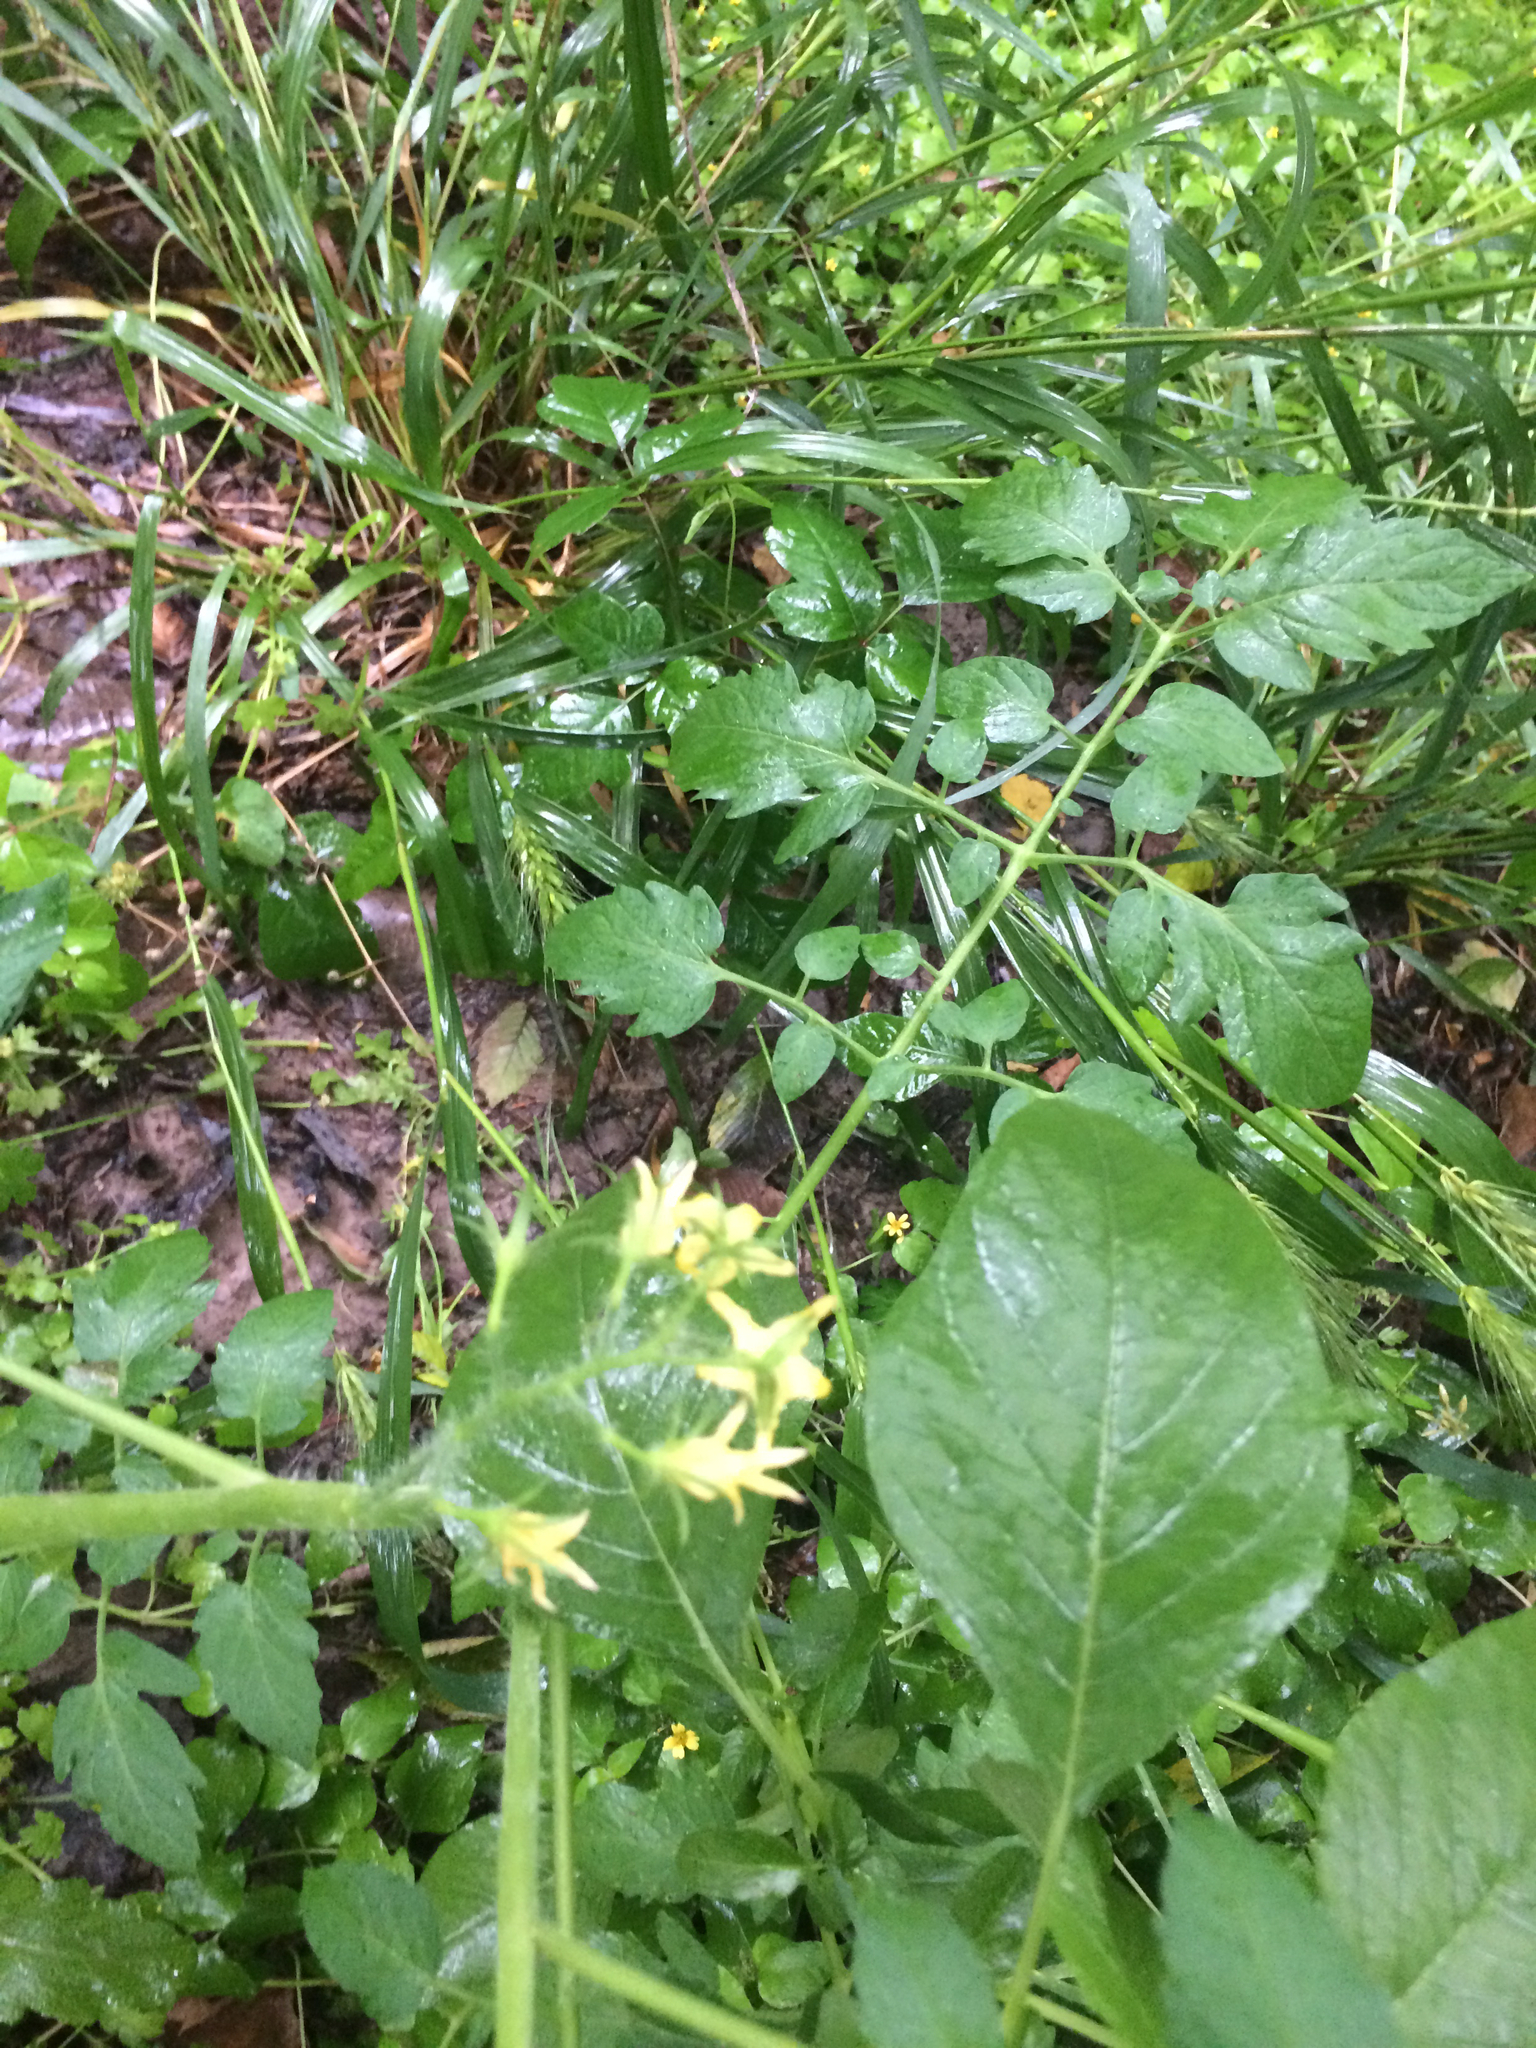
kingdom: Plantae
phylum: Tracheophyta
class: Magnoliopsida
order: Solanales
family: Solanaceae
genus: Solanum
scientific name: Solanum lycopersicum
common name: Garden tomato
